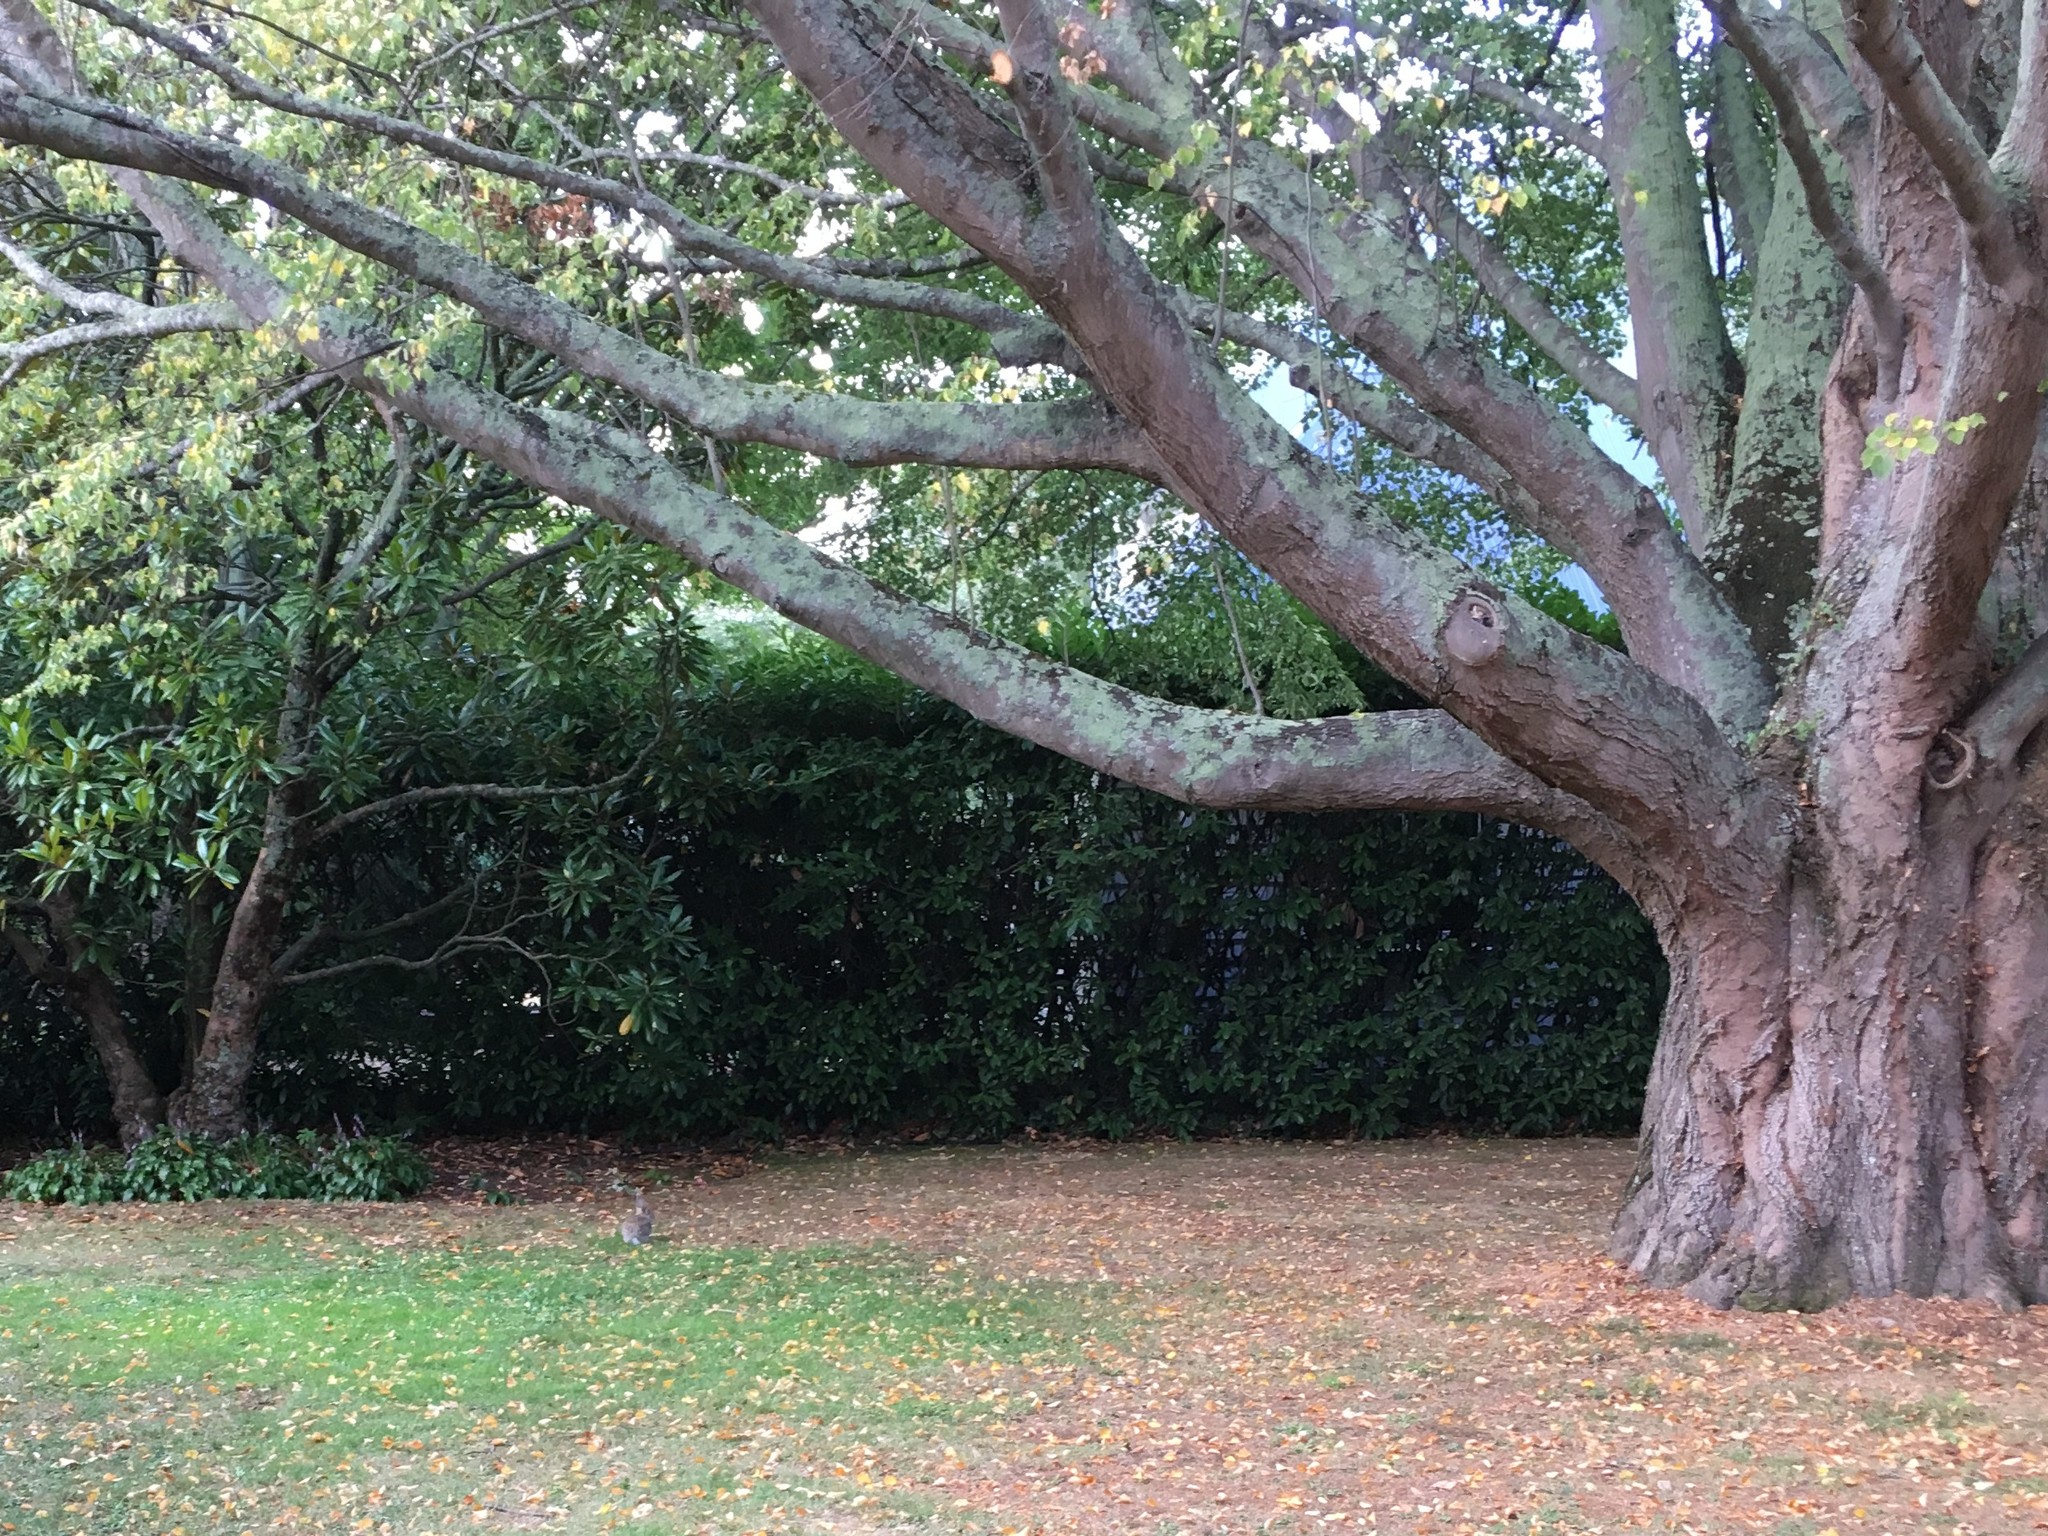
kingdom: Animalia
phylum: Chordata
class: Mammalia
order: Lagomorpha
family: Leporidae
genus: Oryctolagus
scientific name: Oryctolagus cuniculus
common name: European rabbit
